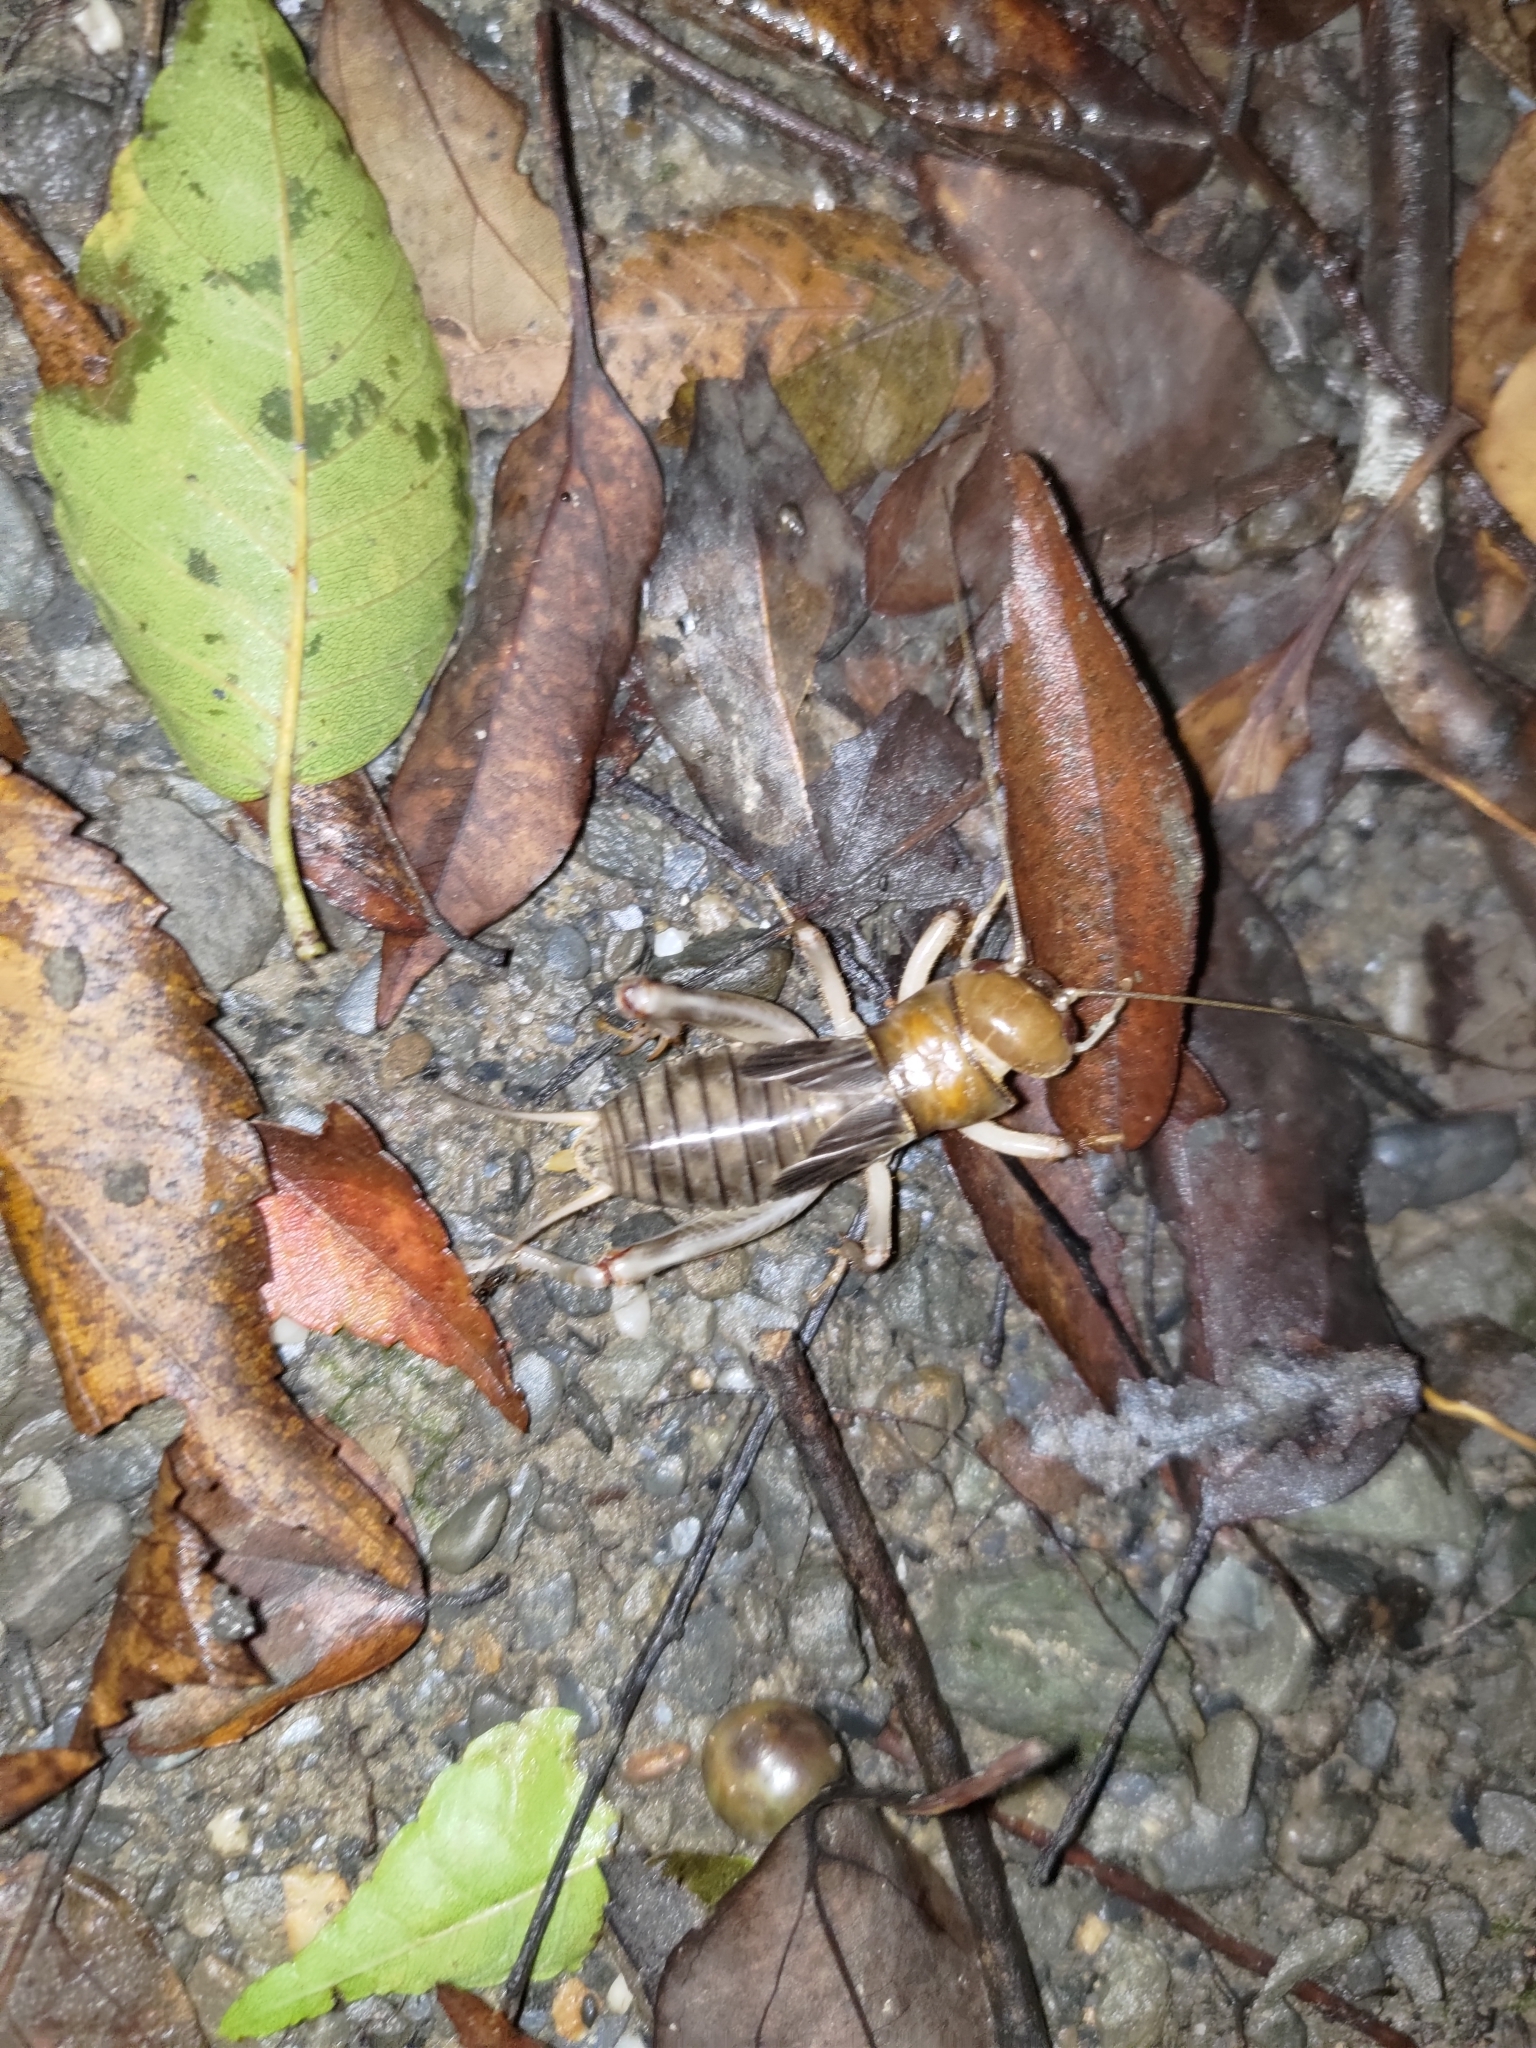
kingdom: Animalia
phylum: Arthropoda
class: Insecta
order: Orthoptera
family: Gryllidae
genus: Tarbinskiellus
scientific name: Tarbinskiellus portentosus
